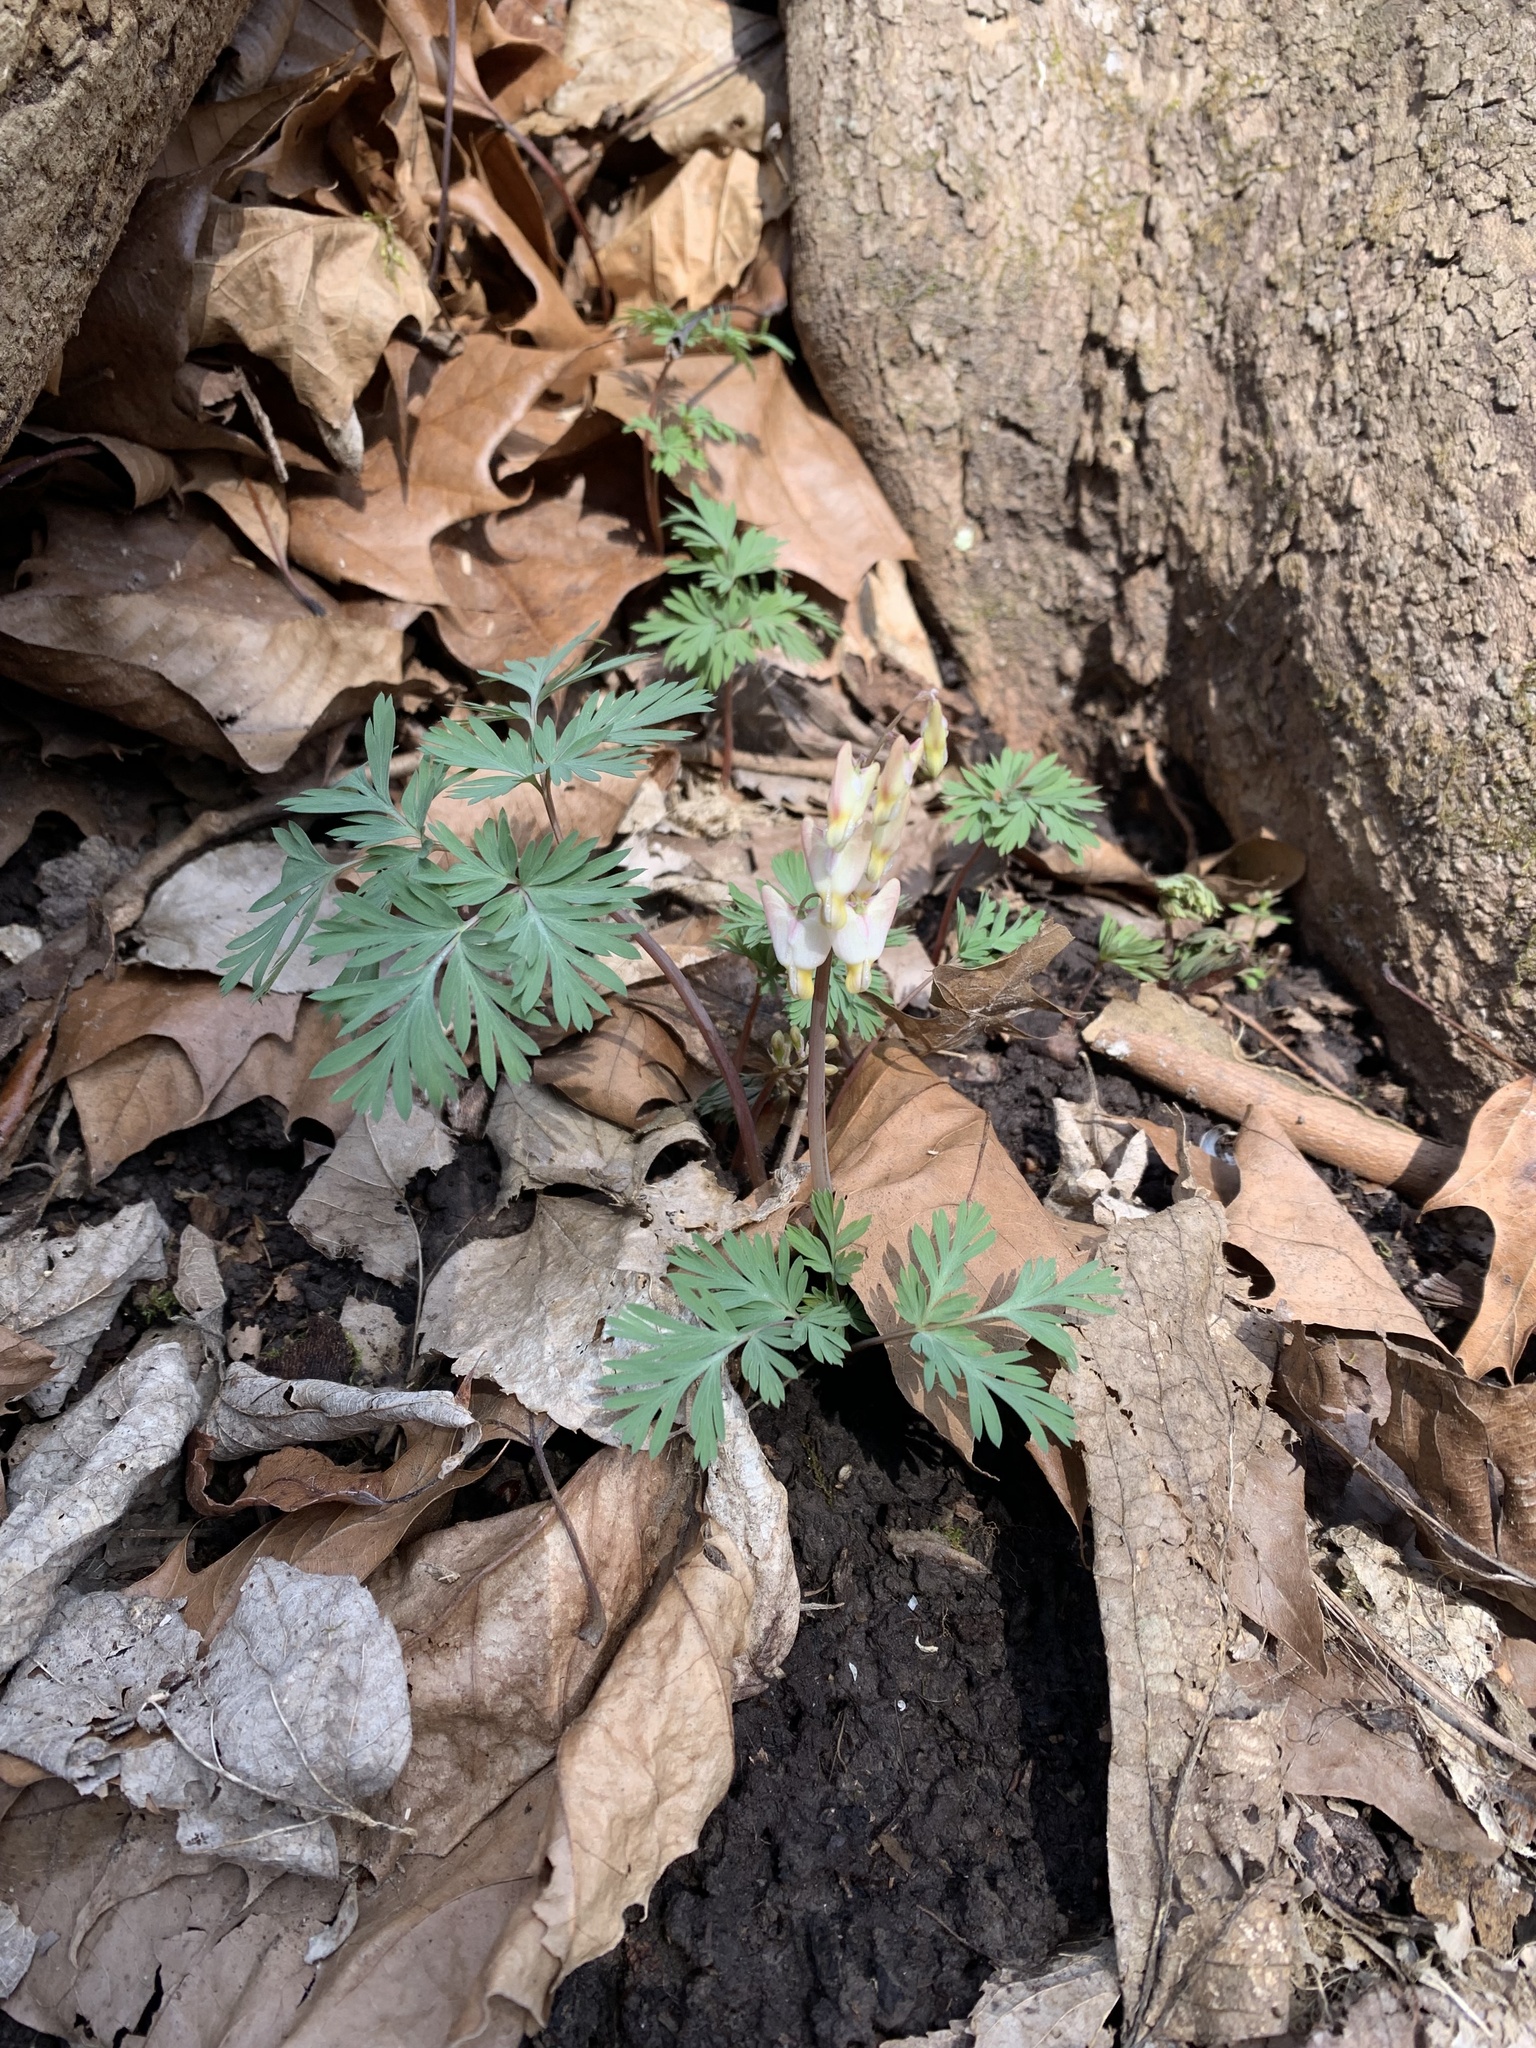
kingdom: Plantae
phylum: Tracheophyta
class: Magnoliopsida
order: Ranunculales
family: Papaveraceae
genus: Dicentra
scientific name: Dicentra cucullaria
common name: Dutchman's breeches
